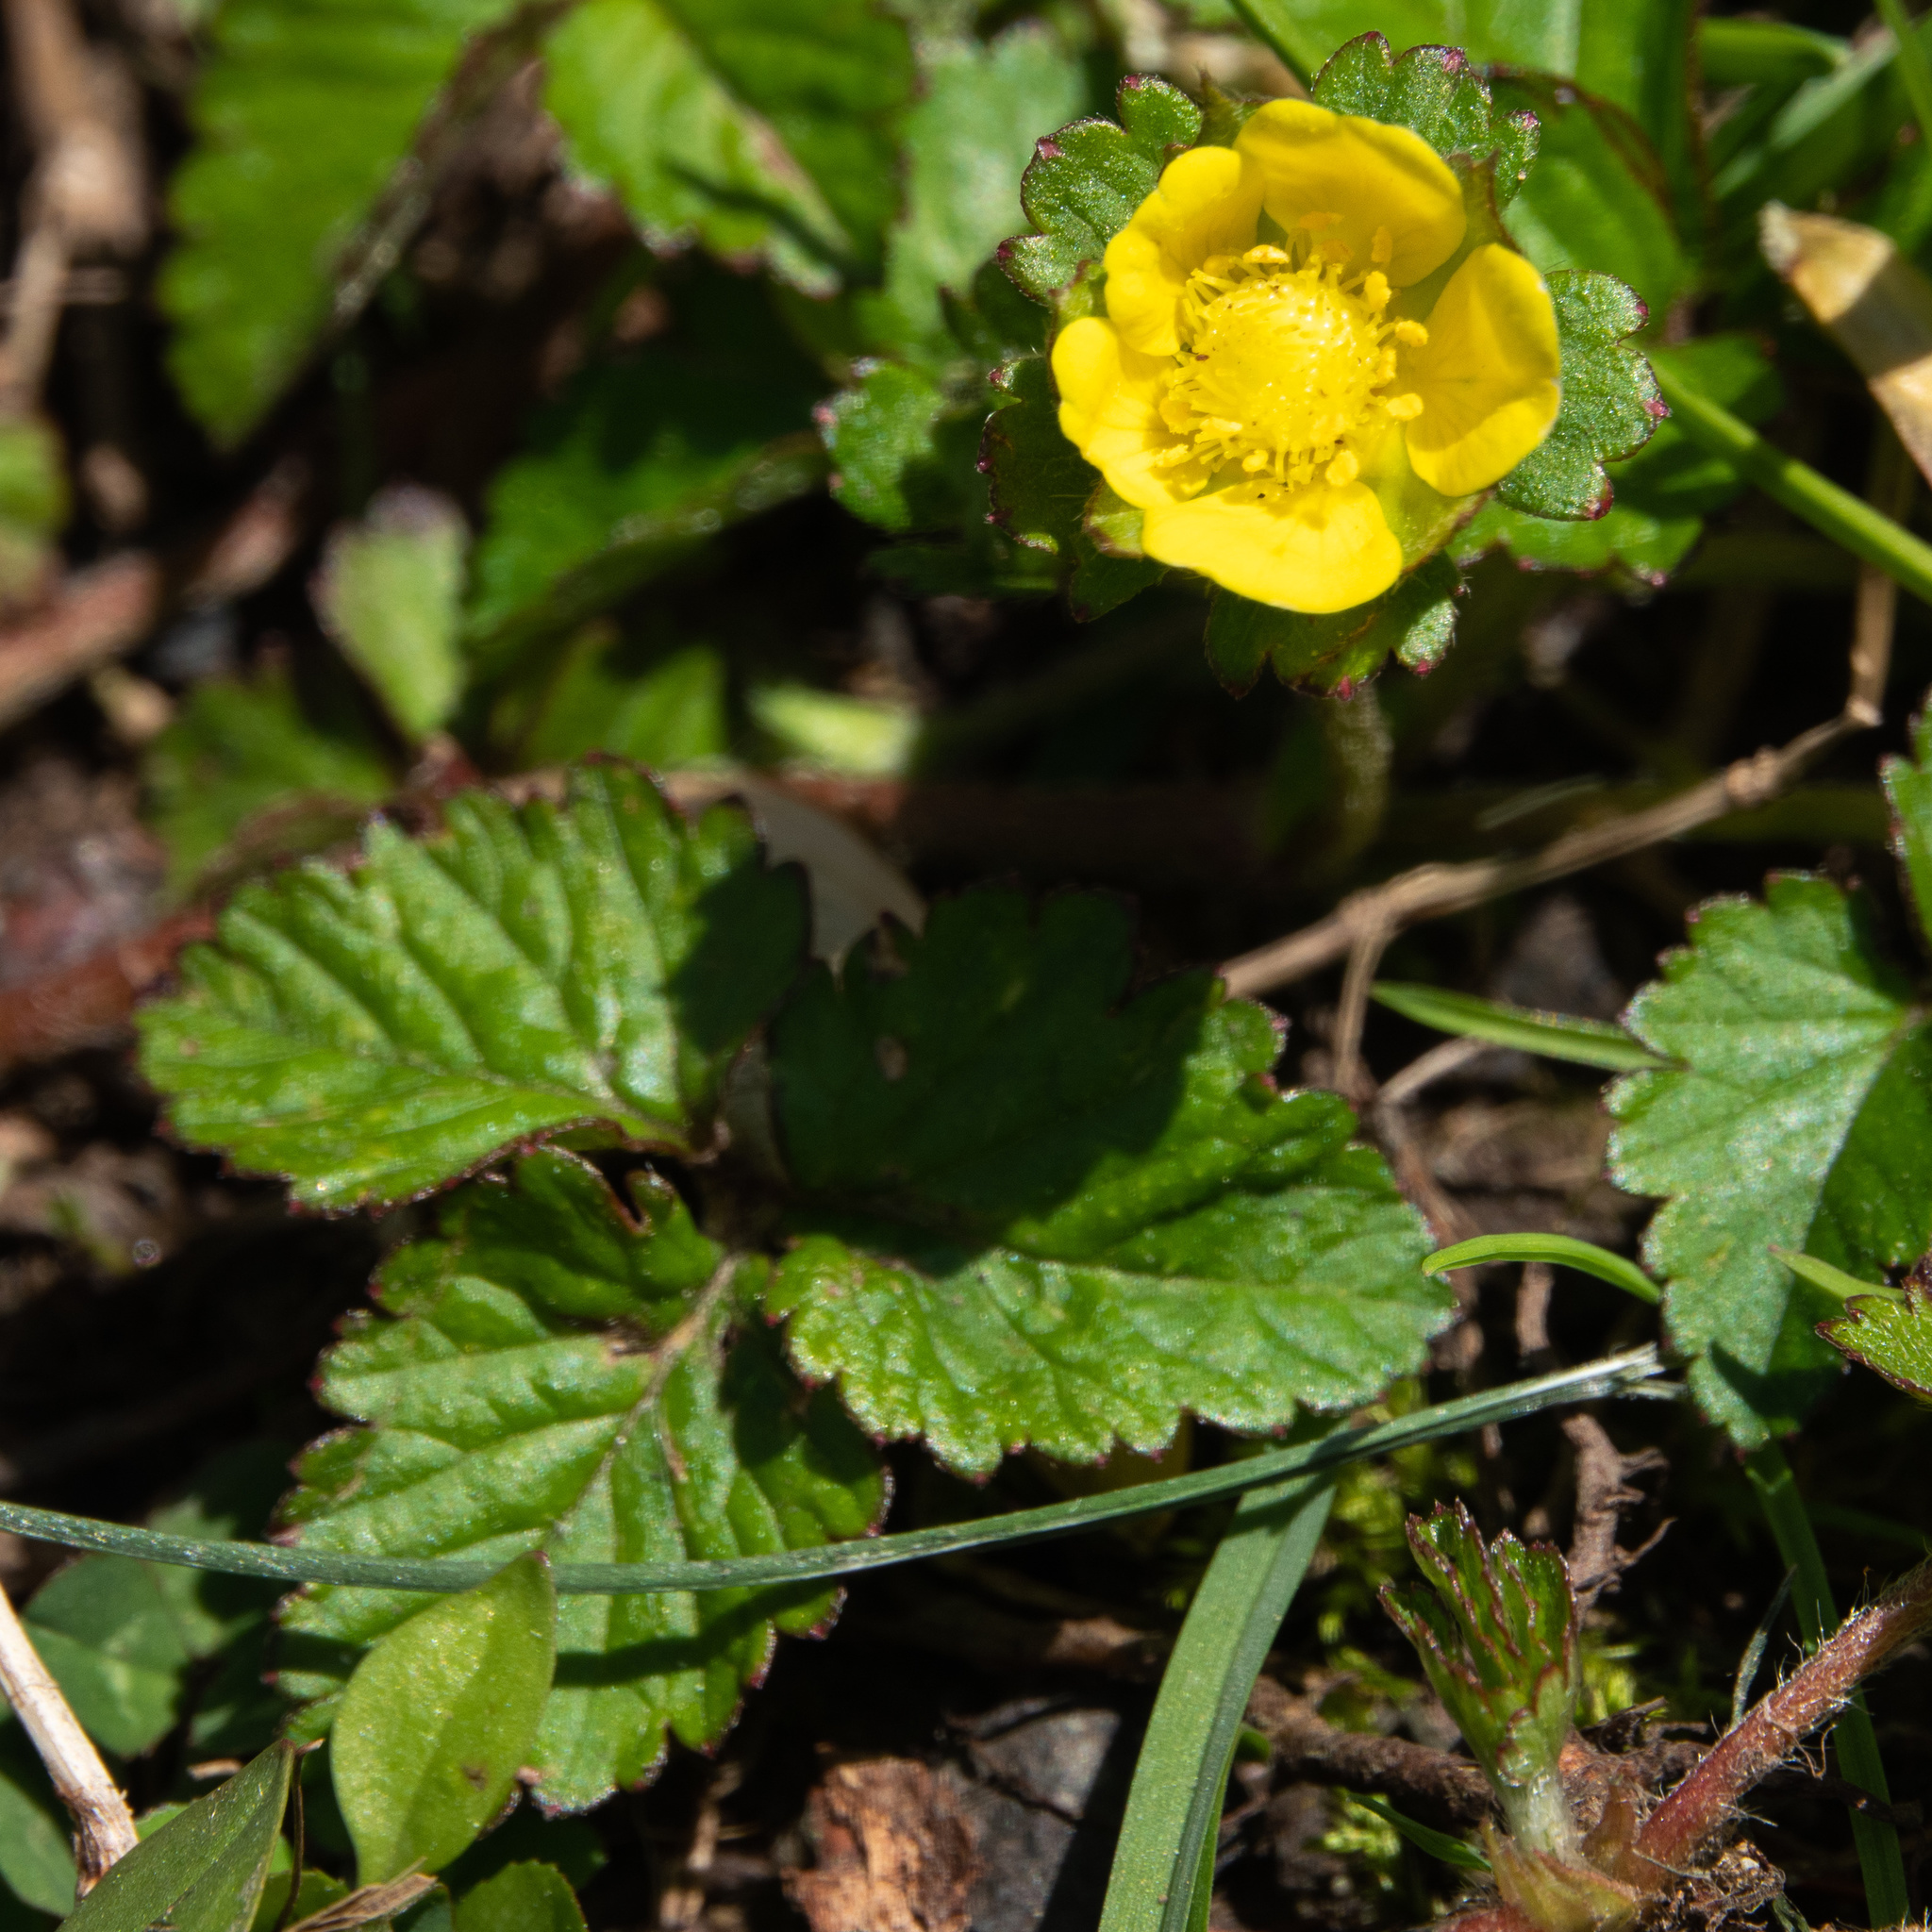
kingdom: Plantae
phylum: Tracheophyta
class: Magnoliopsida
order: Rosales
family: Rosaceae
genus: Potentilla
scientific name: Potentilla indica
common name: Yellow-flowered strawberry
